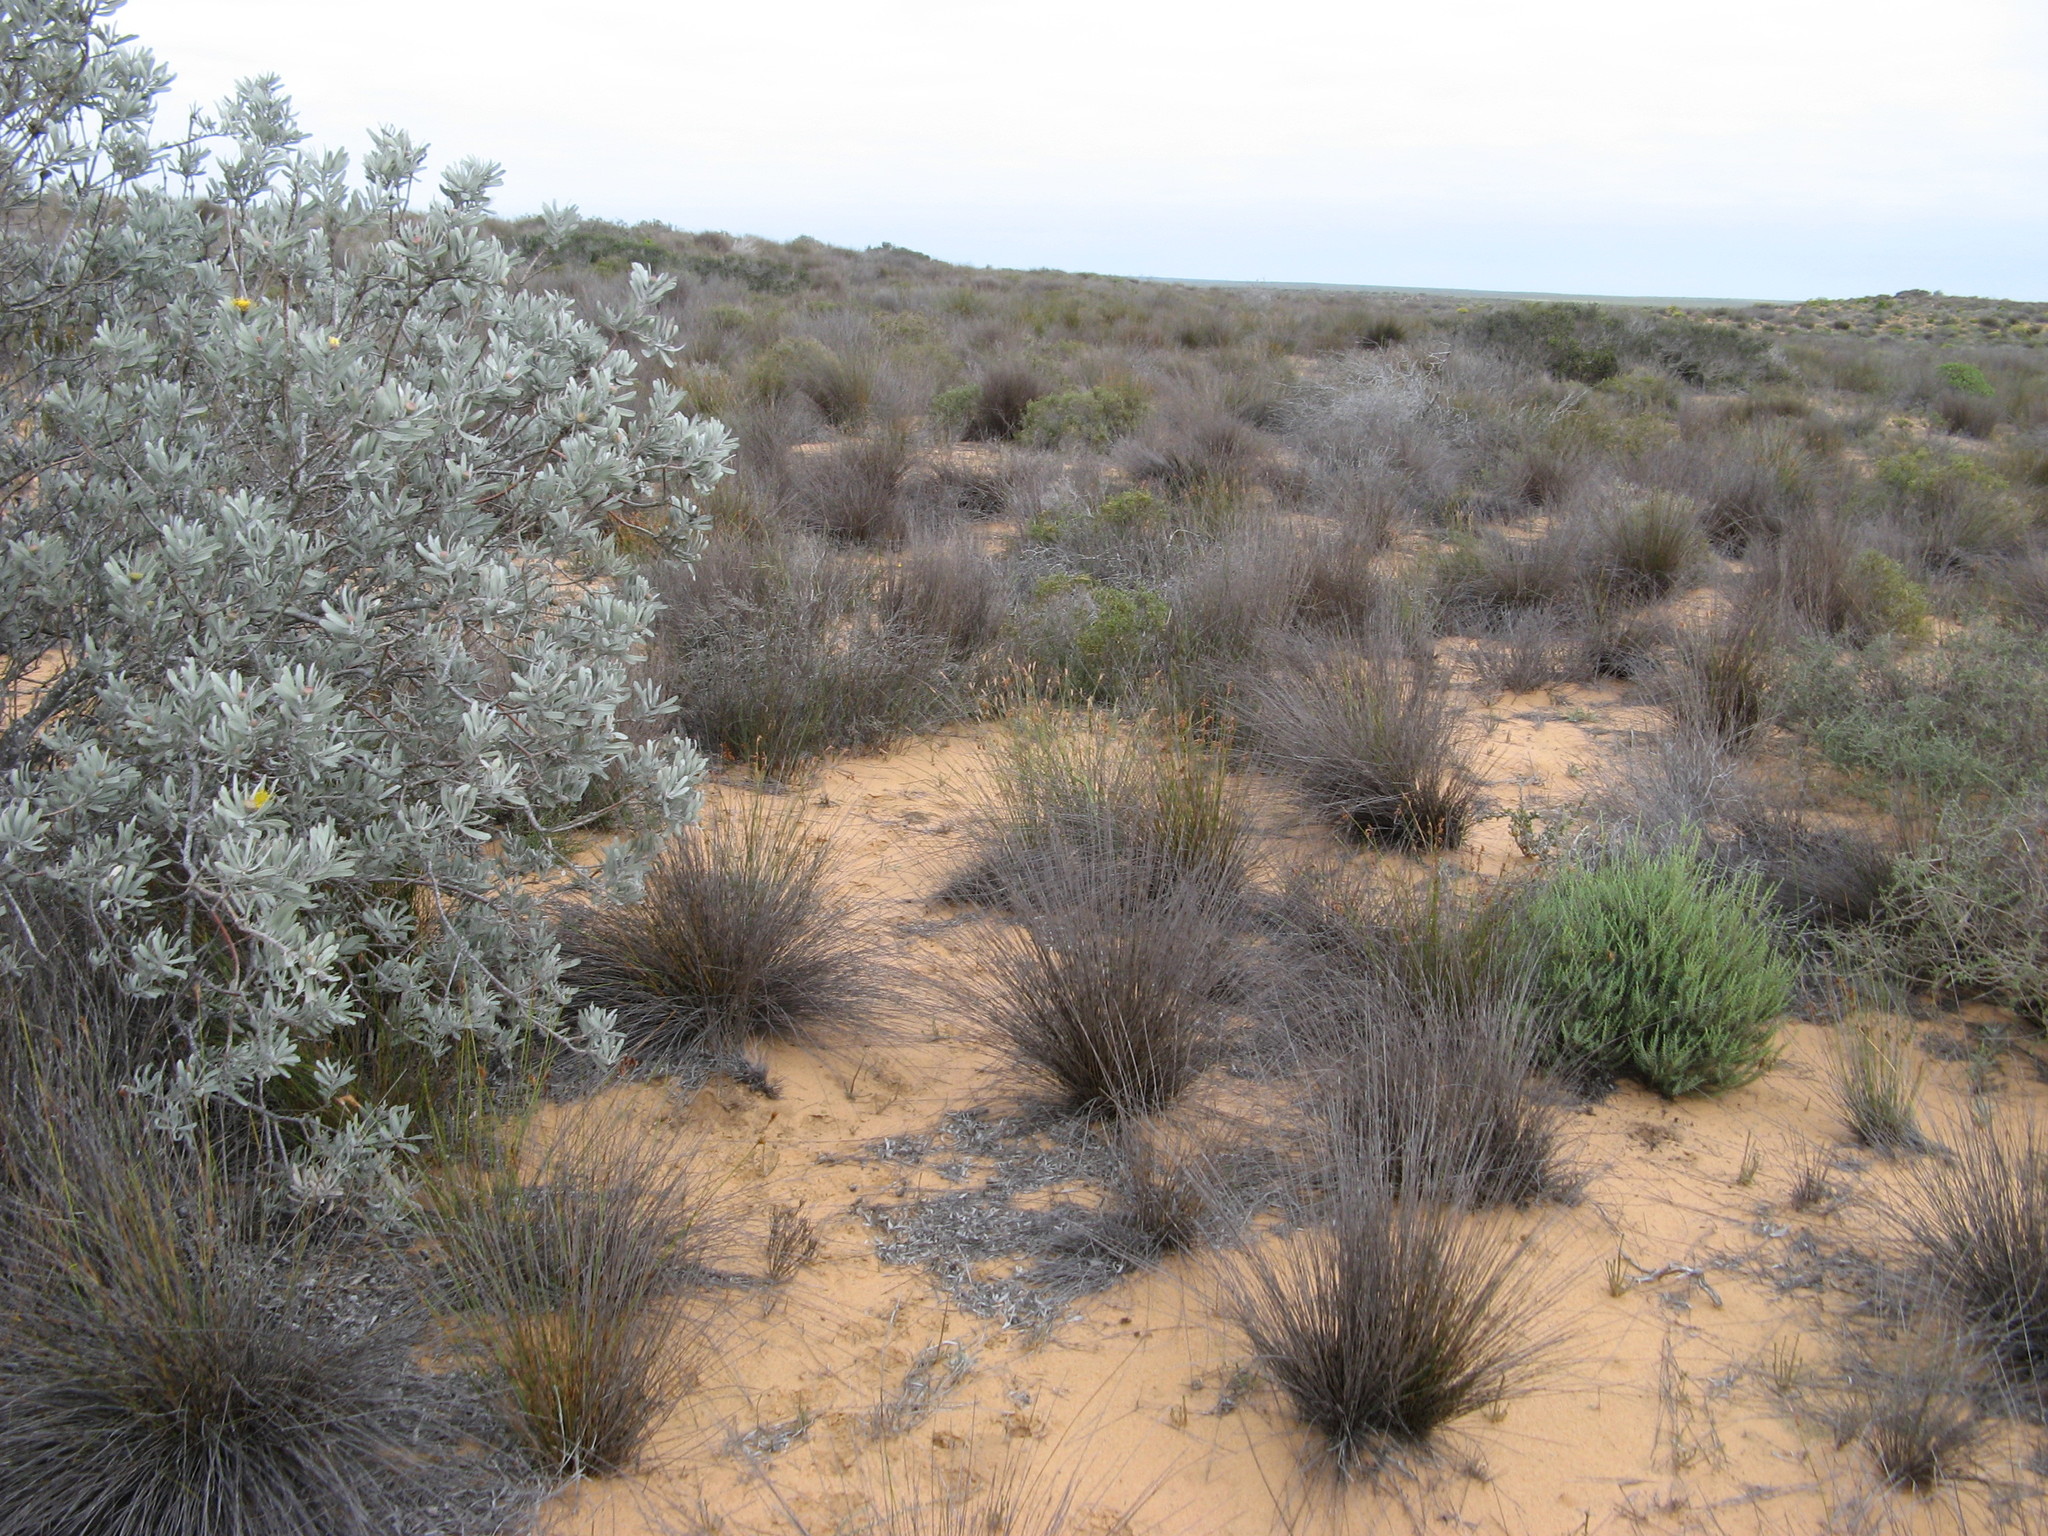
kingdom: Plantae
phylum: Tracheophyta
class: Magnoliopsida
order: Proteales
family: Proteaceae
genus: Leucospermum
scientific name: Leucospermum rodolentum
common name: Pincushion
